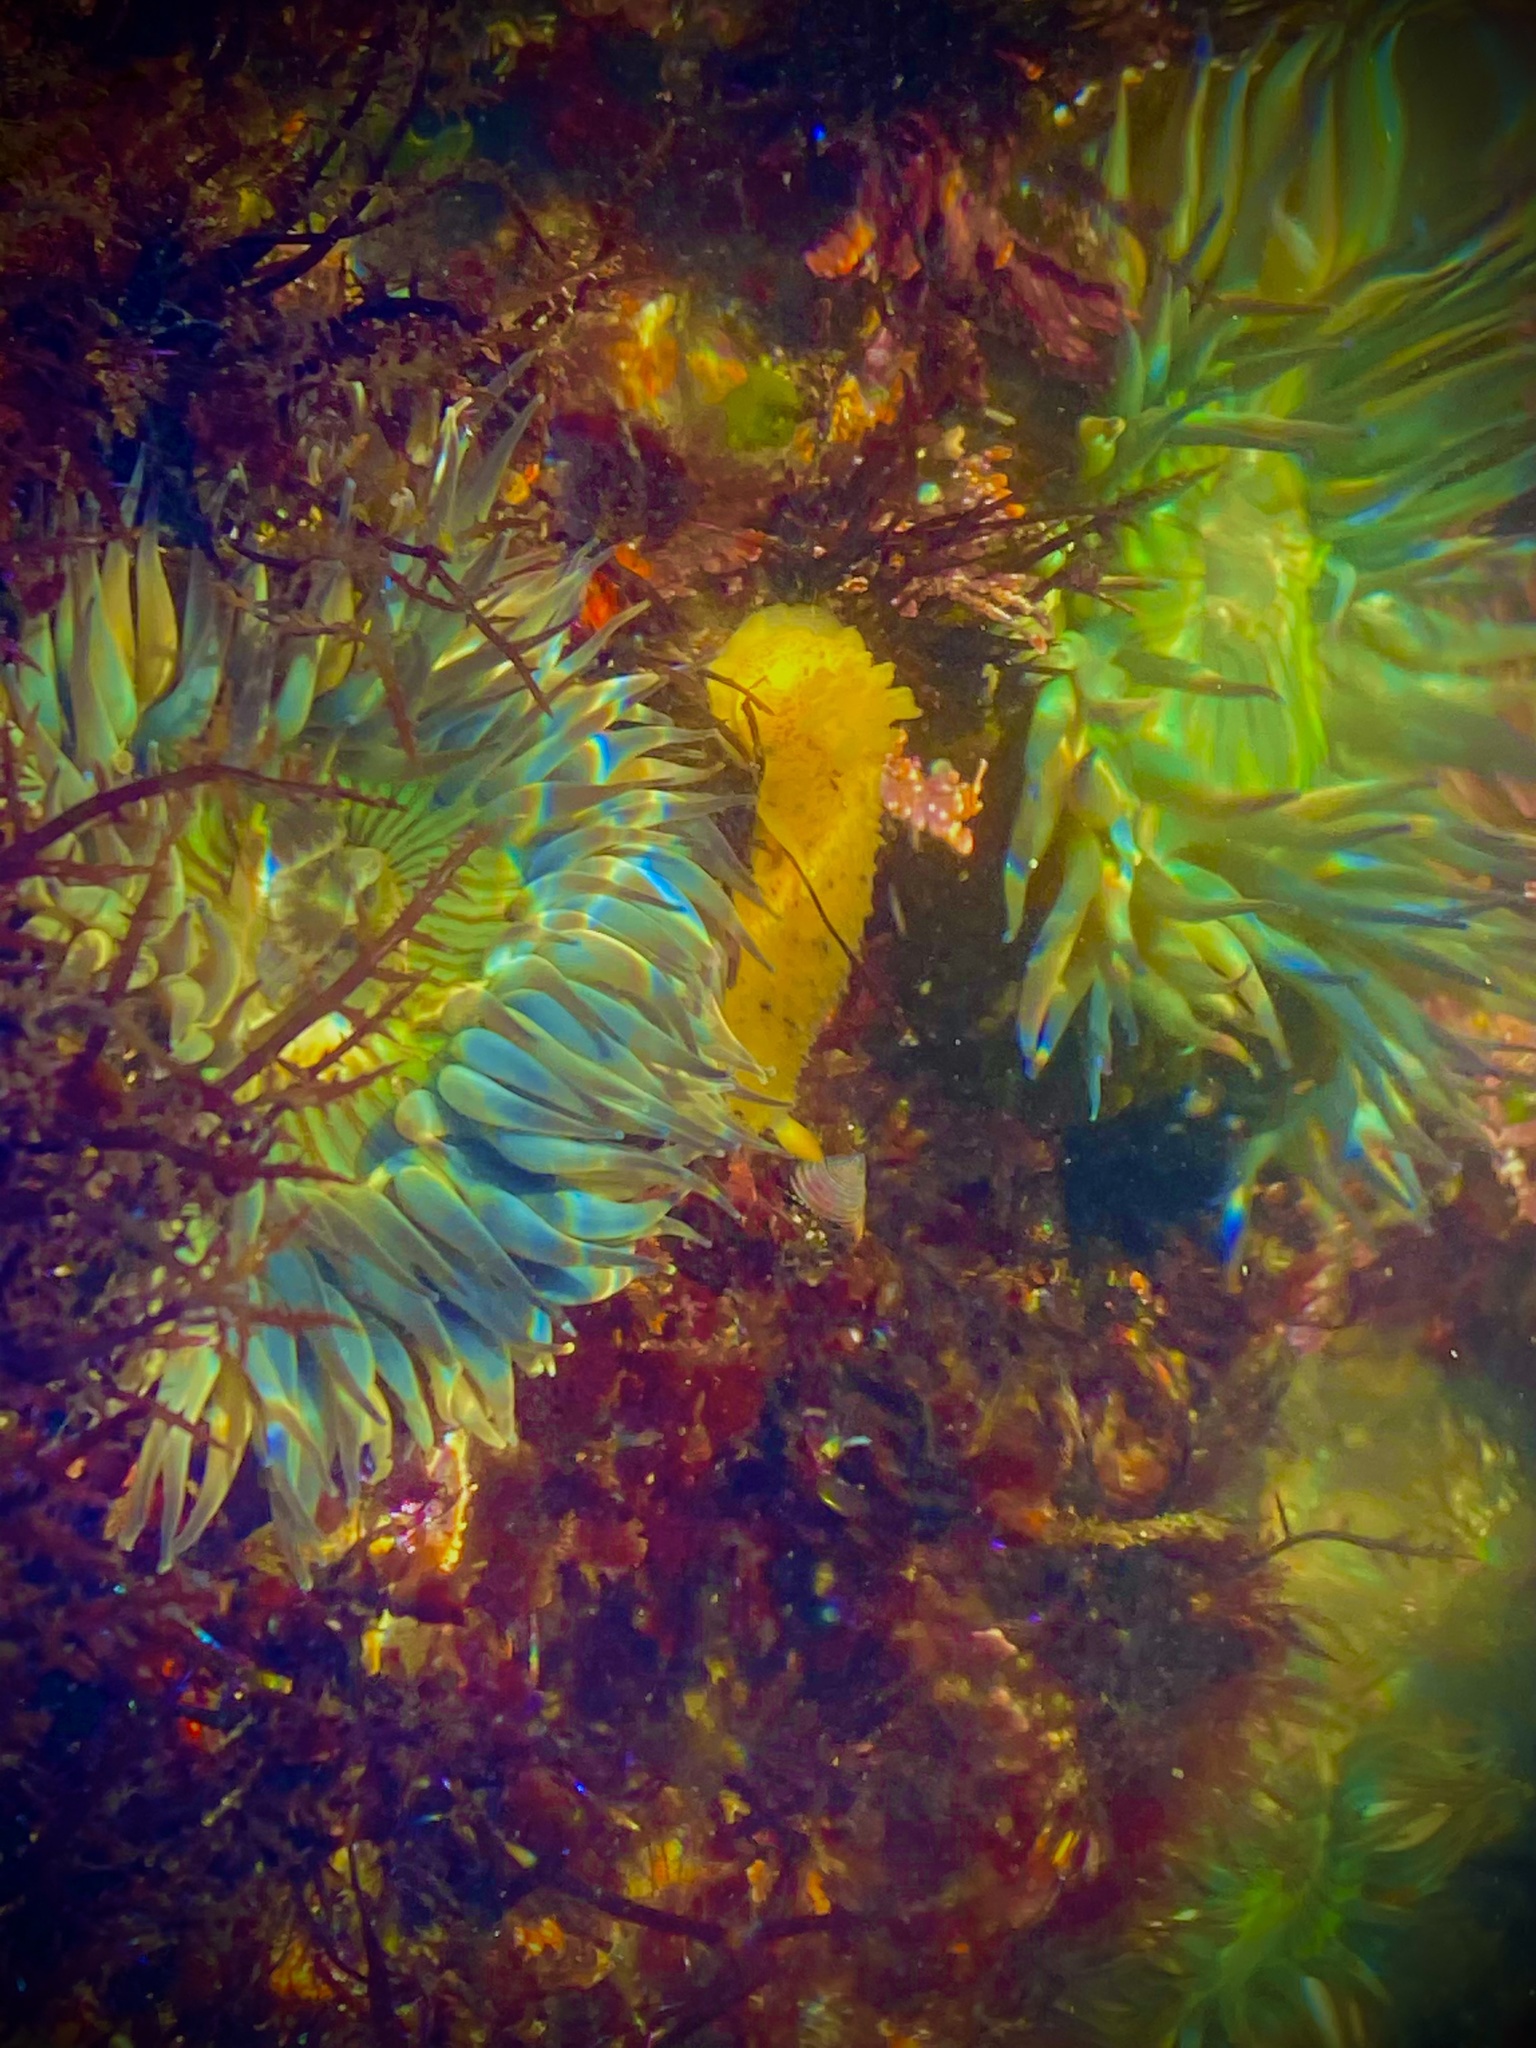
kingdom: Animalia
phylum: Mollusca
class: Gastropoda
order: Nudibranchia
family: Dorididae
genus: Doris
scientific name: Doris montereyensis
